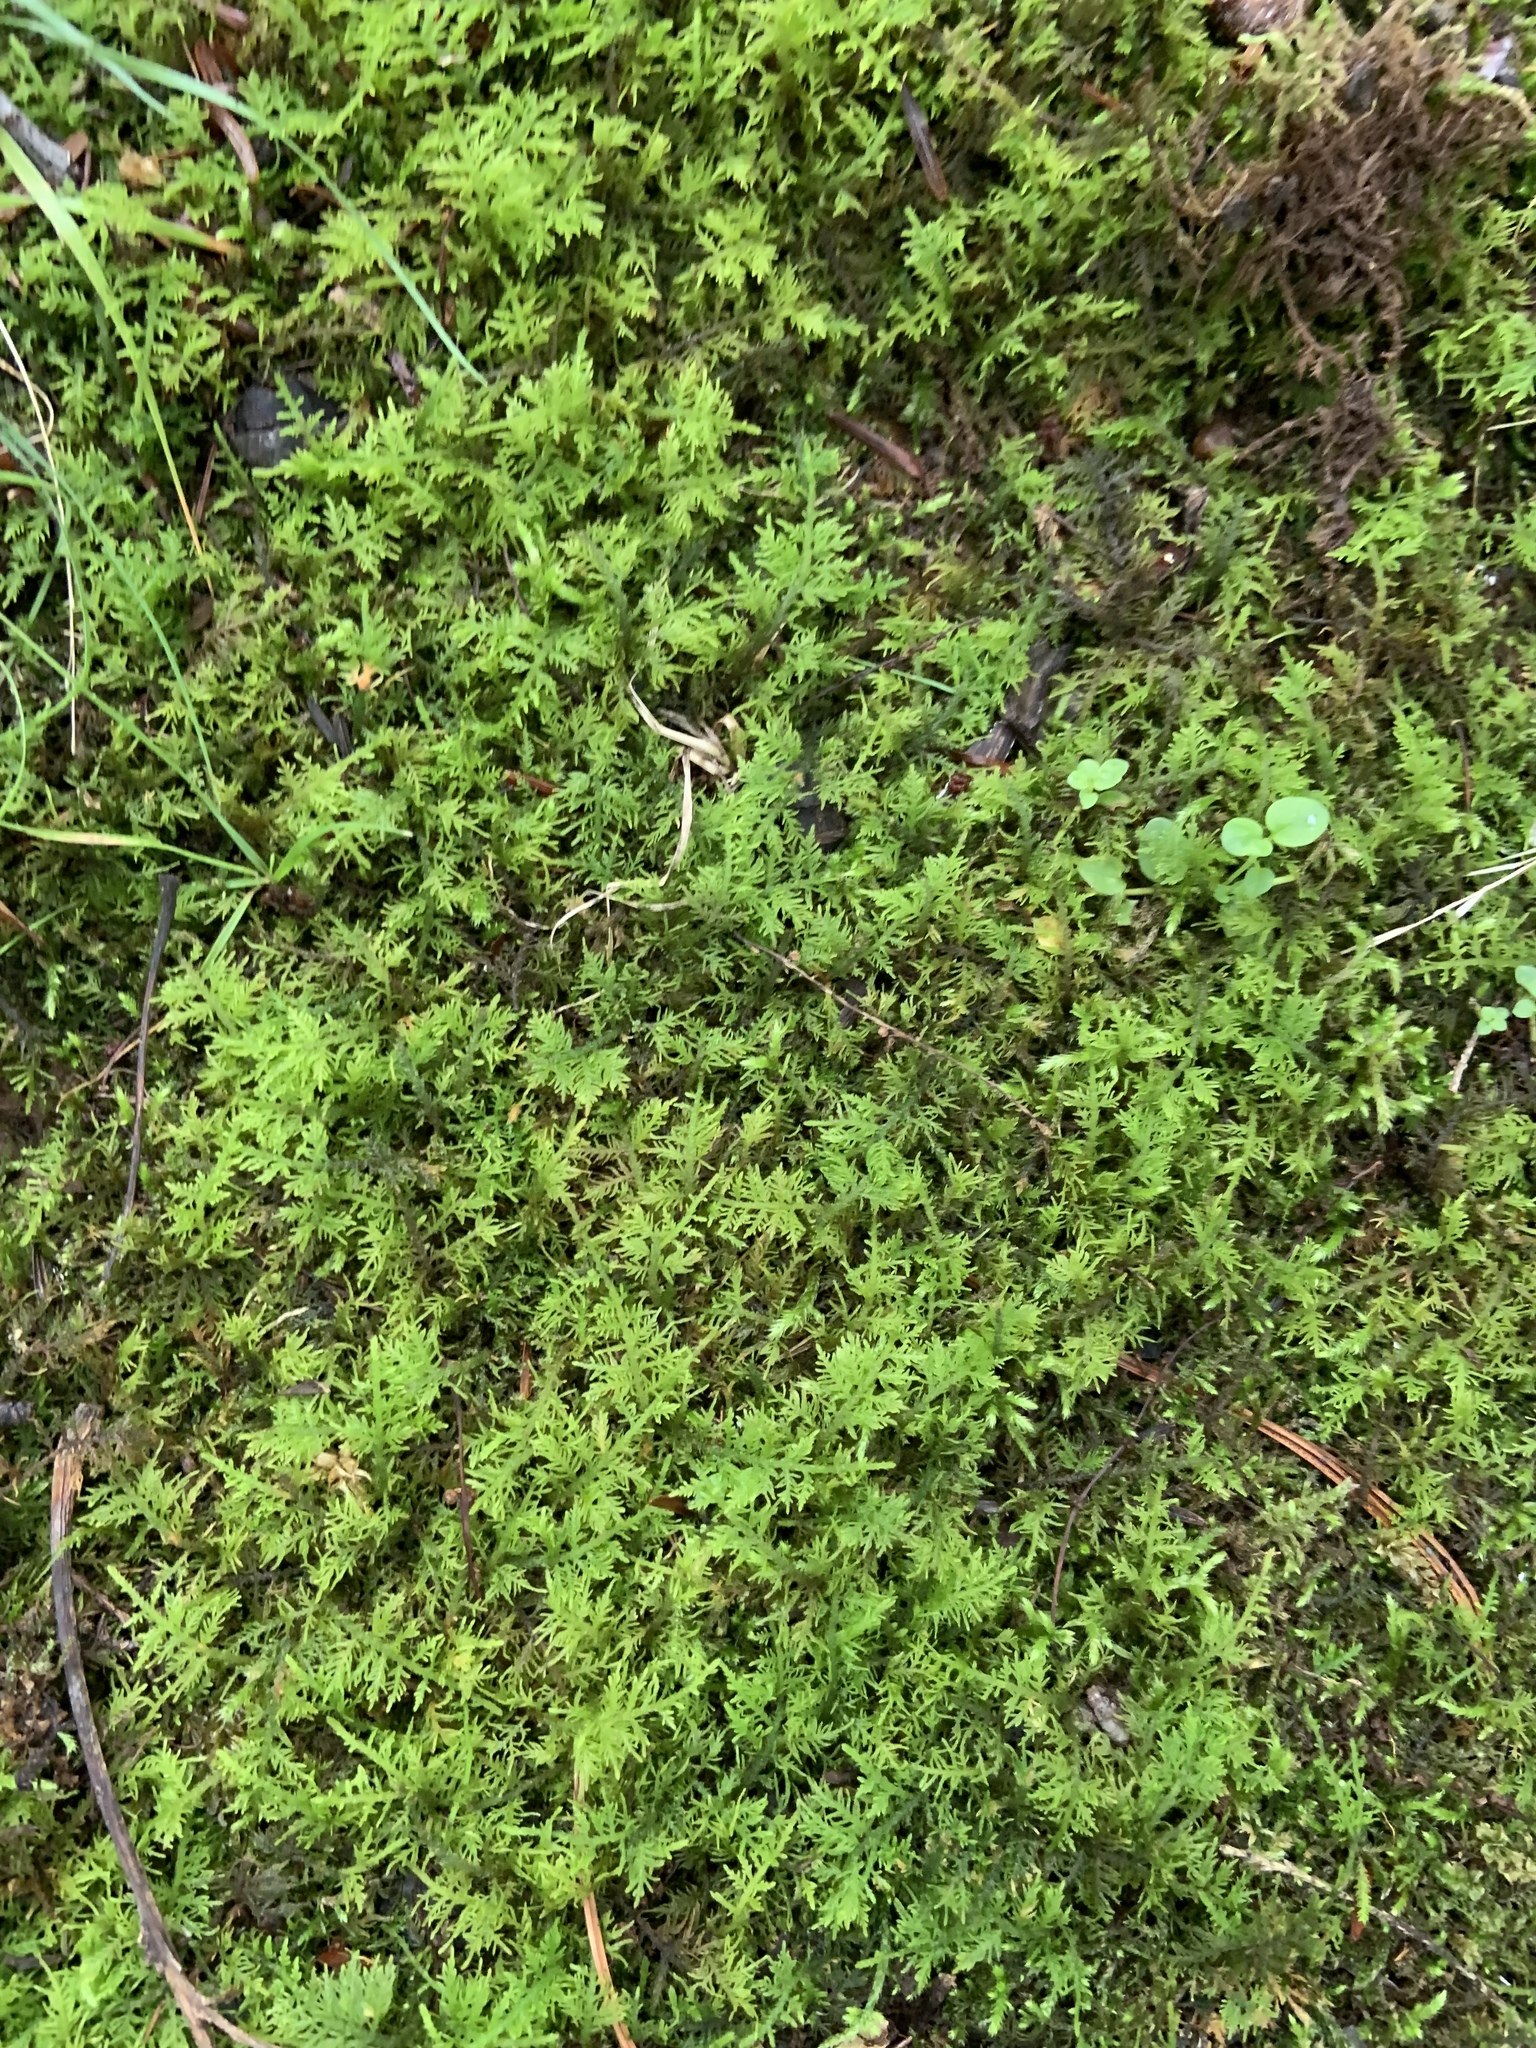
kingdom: Plantae
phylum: Bryophyta
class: Bryopsida
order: Hypnales
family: Thuidiaceae
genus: Thuidium
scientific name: Thuidium delicatulum
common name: Delicate fern moss
